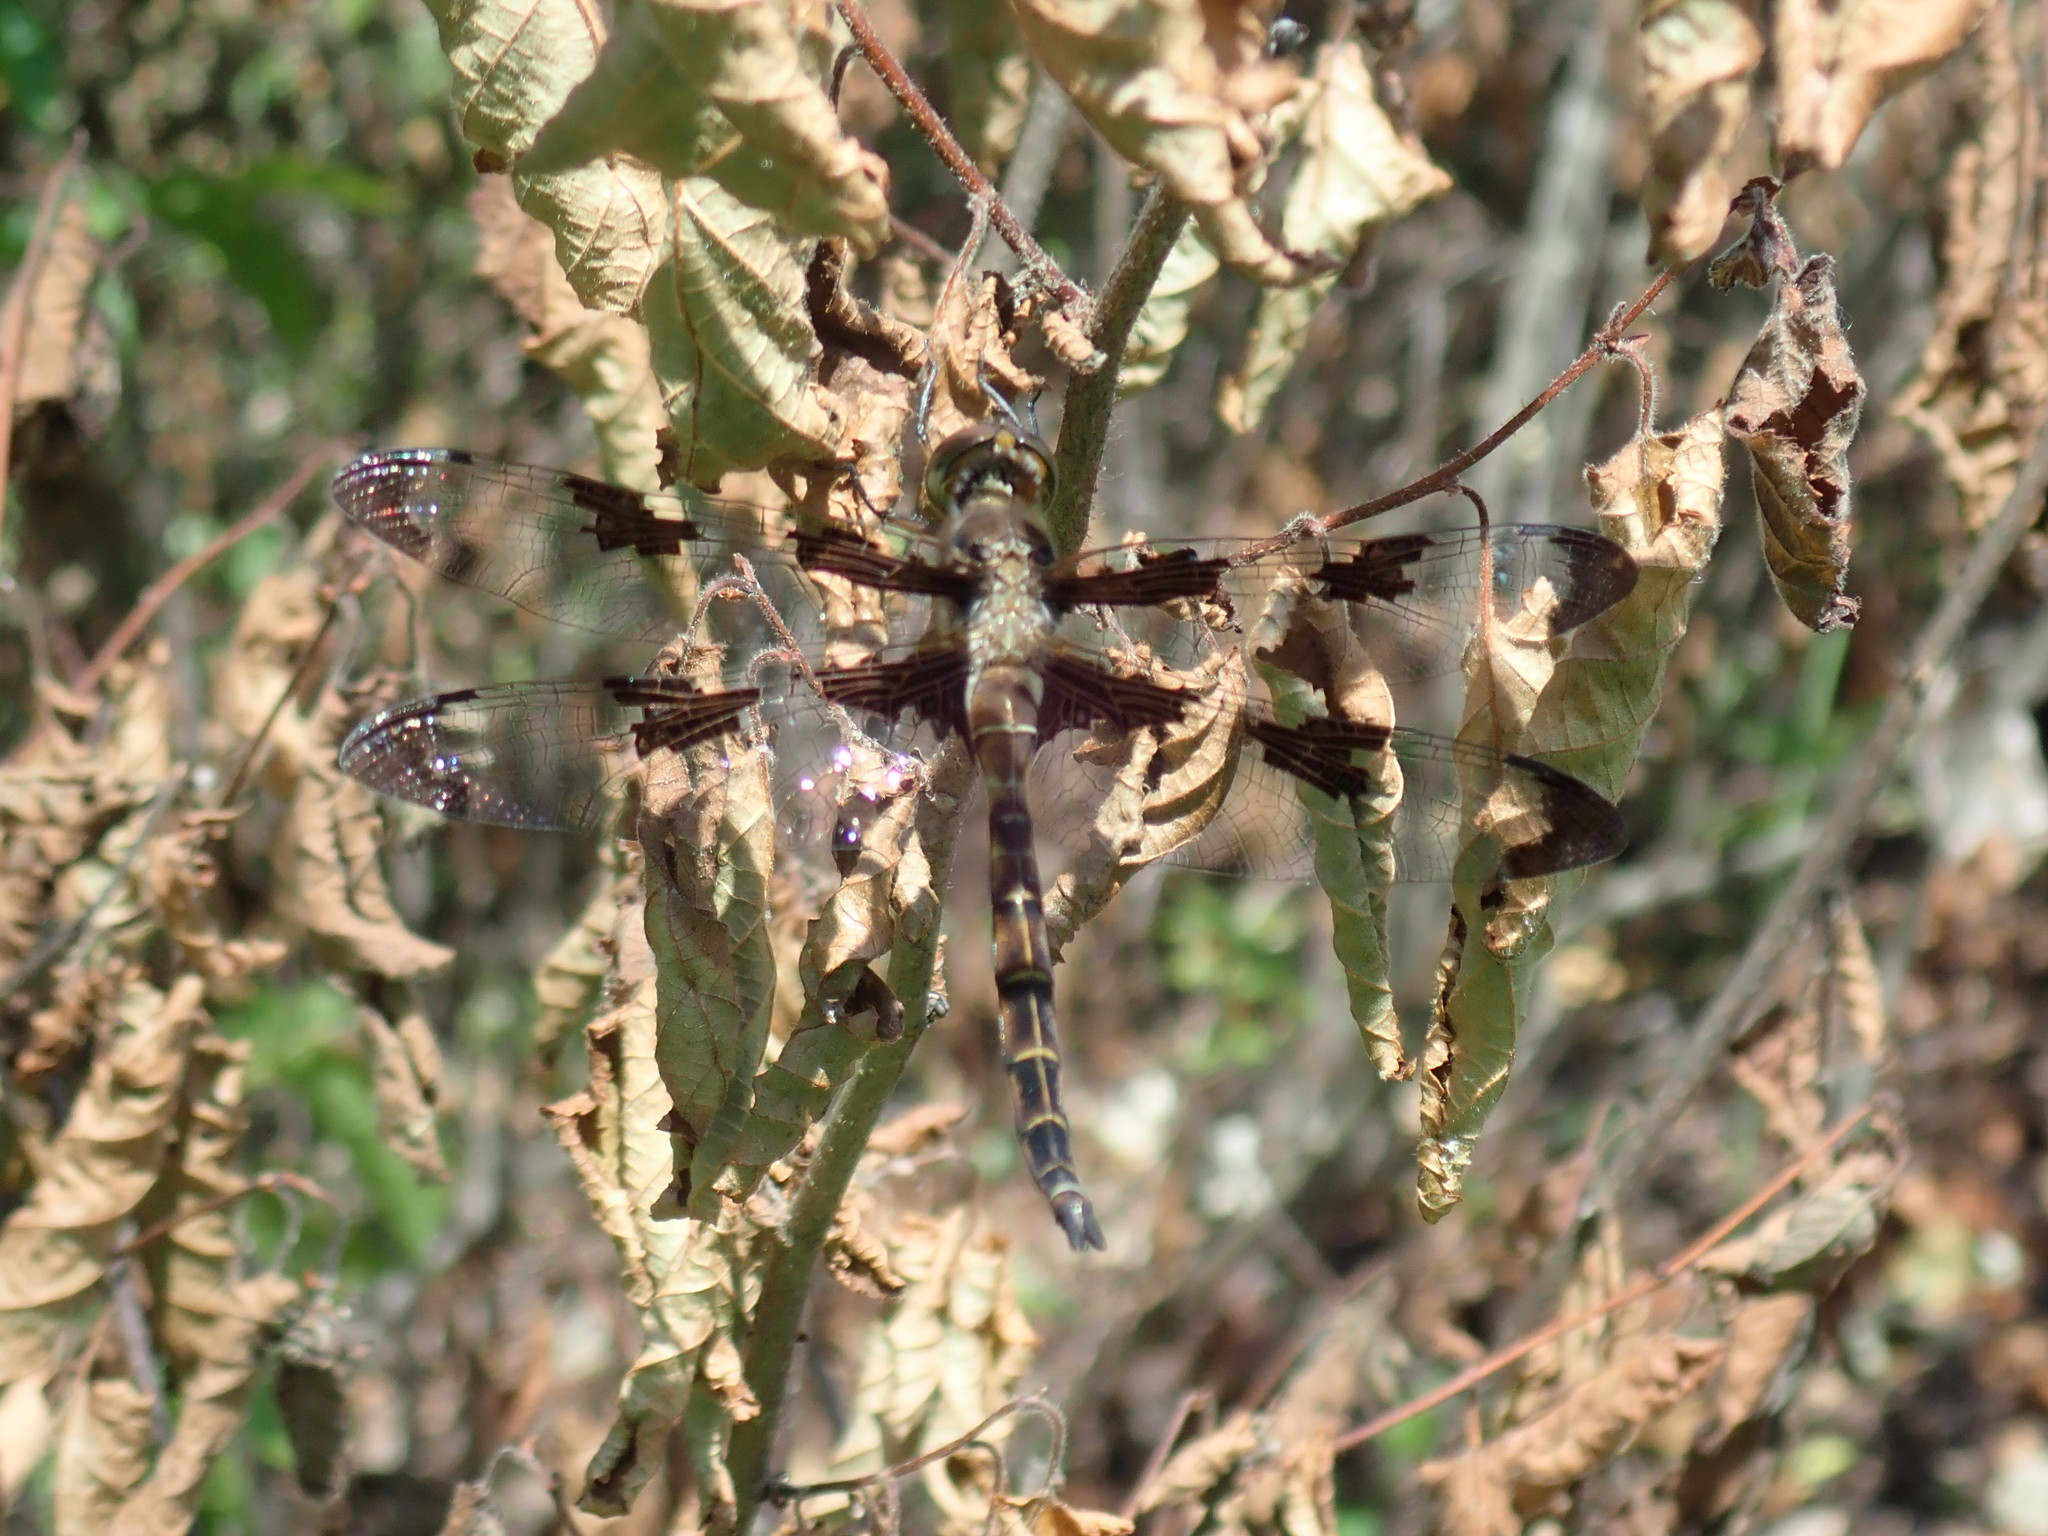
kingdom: Animalia
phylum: Arthropoda
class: Insecta
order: Odonata
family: Corduliidae
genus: Epitheca
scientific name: Epitheca princeps
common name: Prince baskettail
